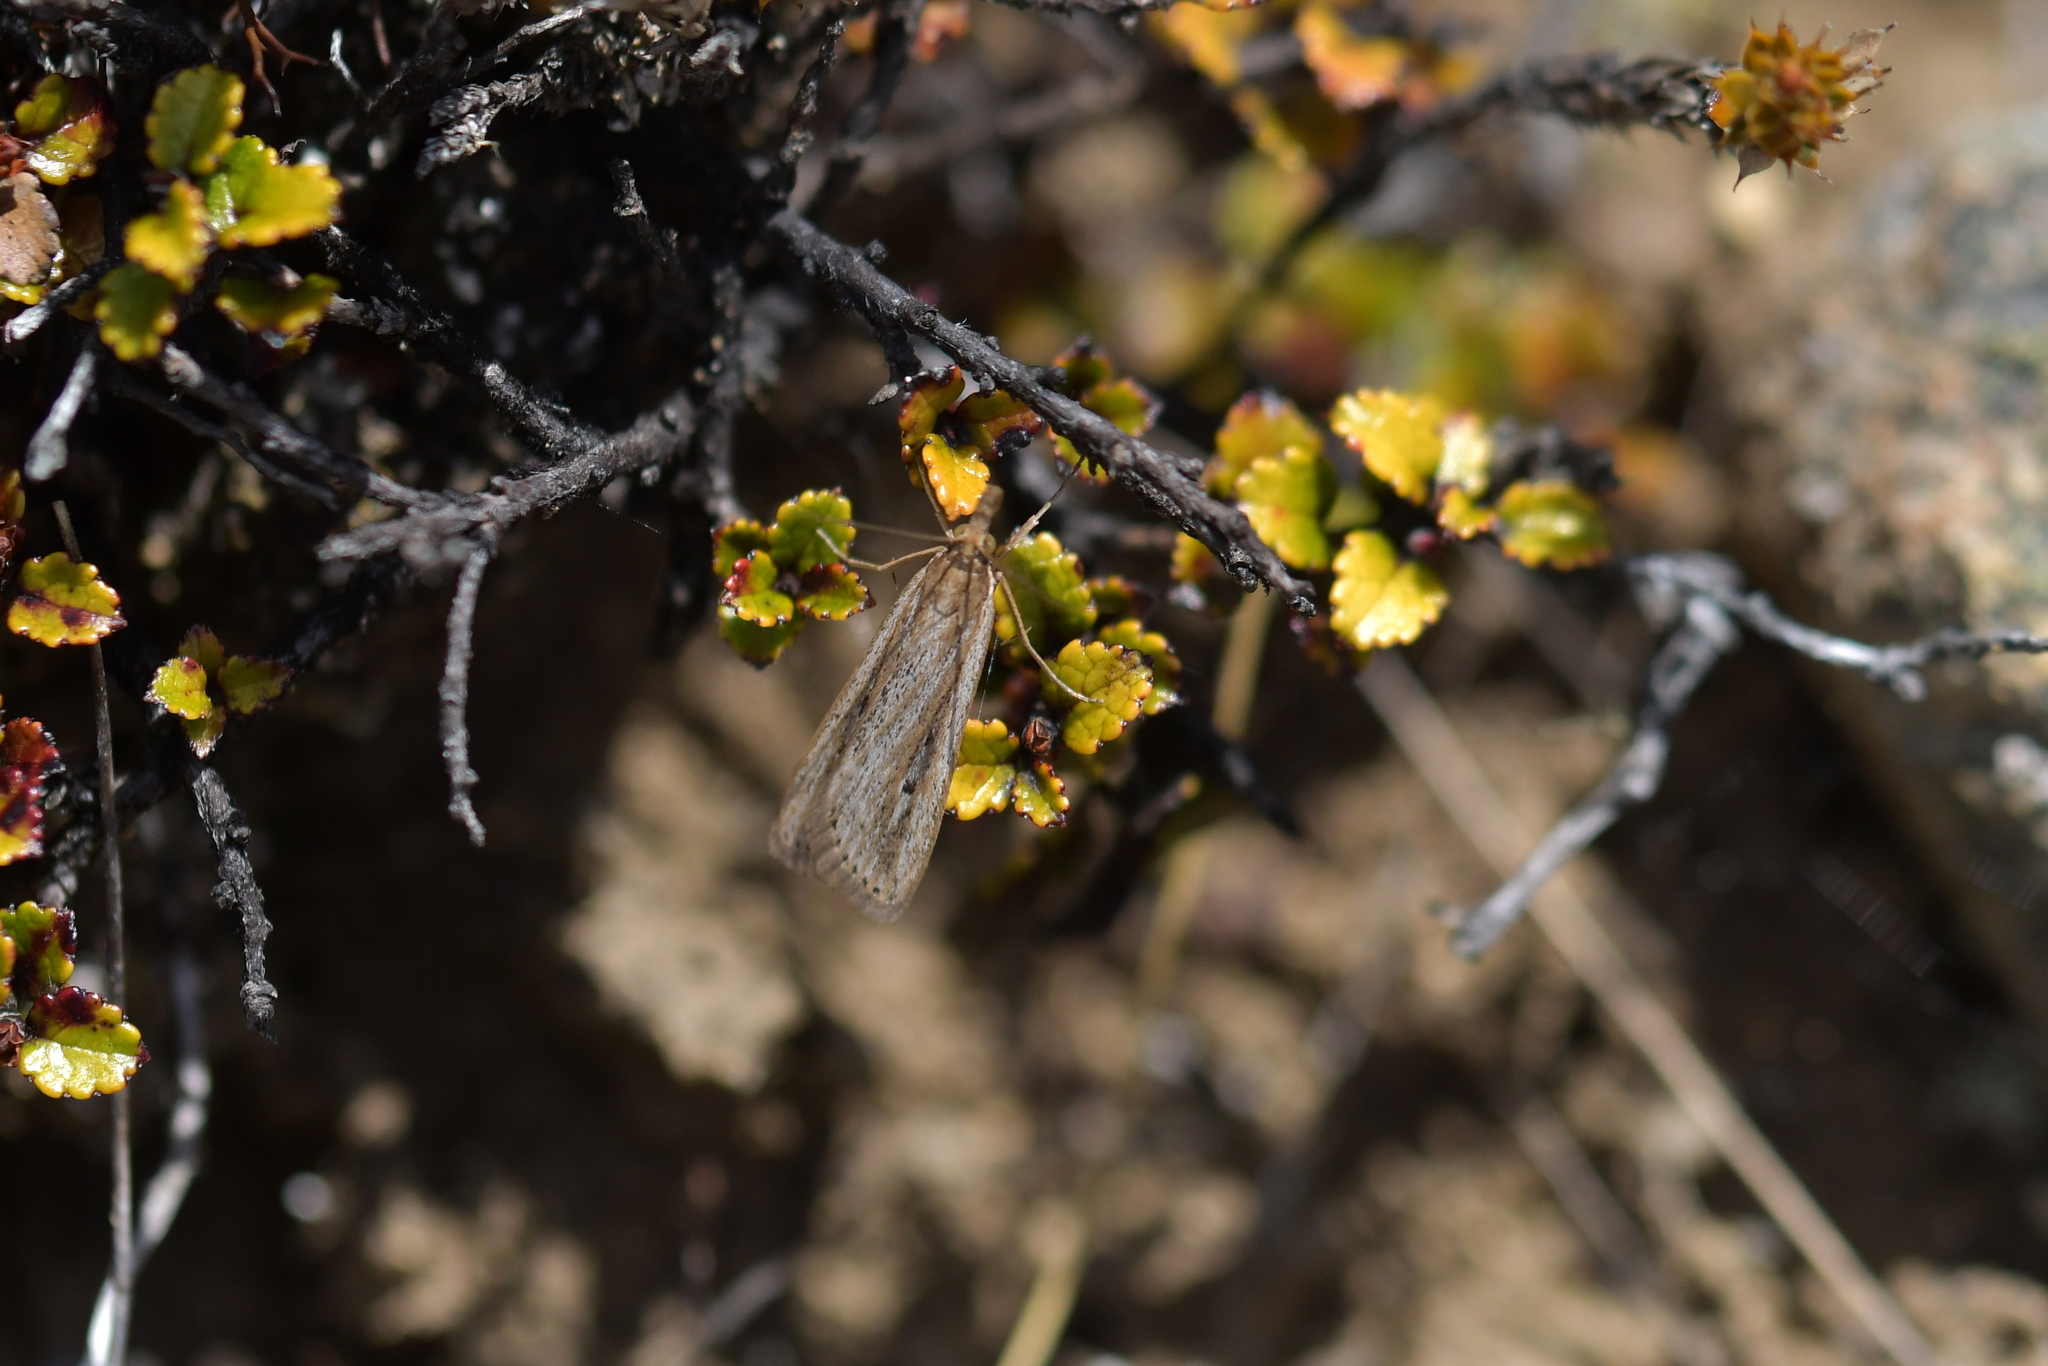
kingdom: Animalia
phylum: Arthropoda
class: Insecta
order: Lepidoptera
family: Crambidae
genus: Eudonia
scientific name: Eudonia sabulosella
